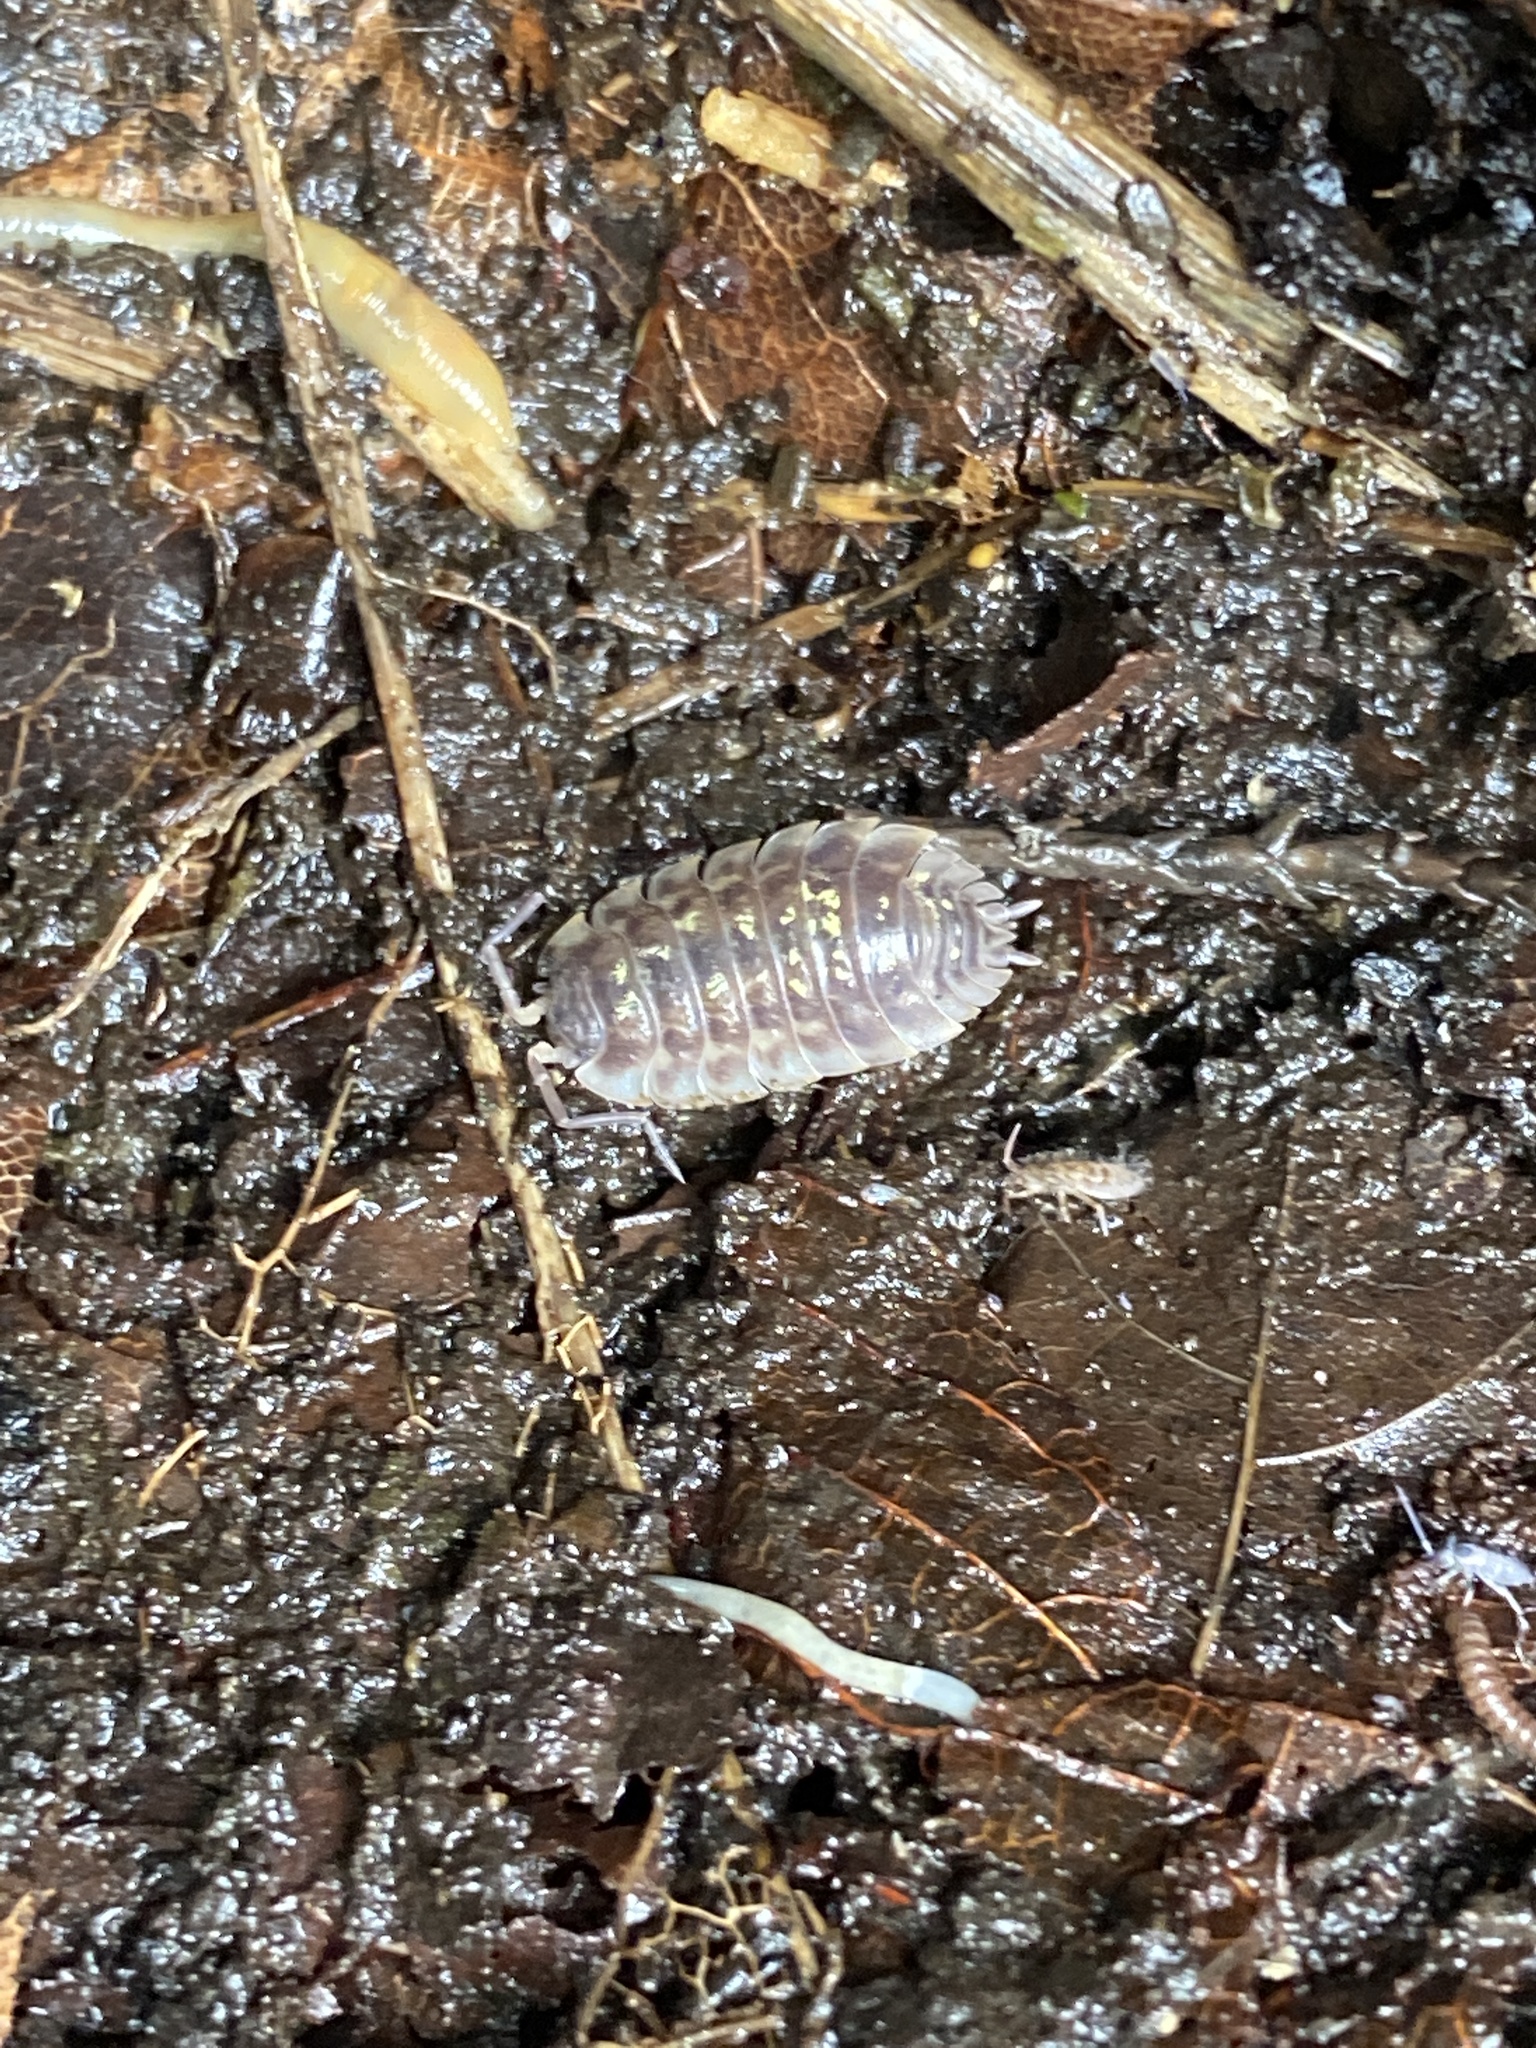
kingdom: Animalia
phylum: Arthropoda
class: Malacostraca
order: Isopoda
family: Oniscidae
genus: Oniscus
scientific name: Oniscus asellus
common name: Common shiny woodlouse
